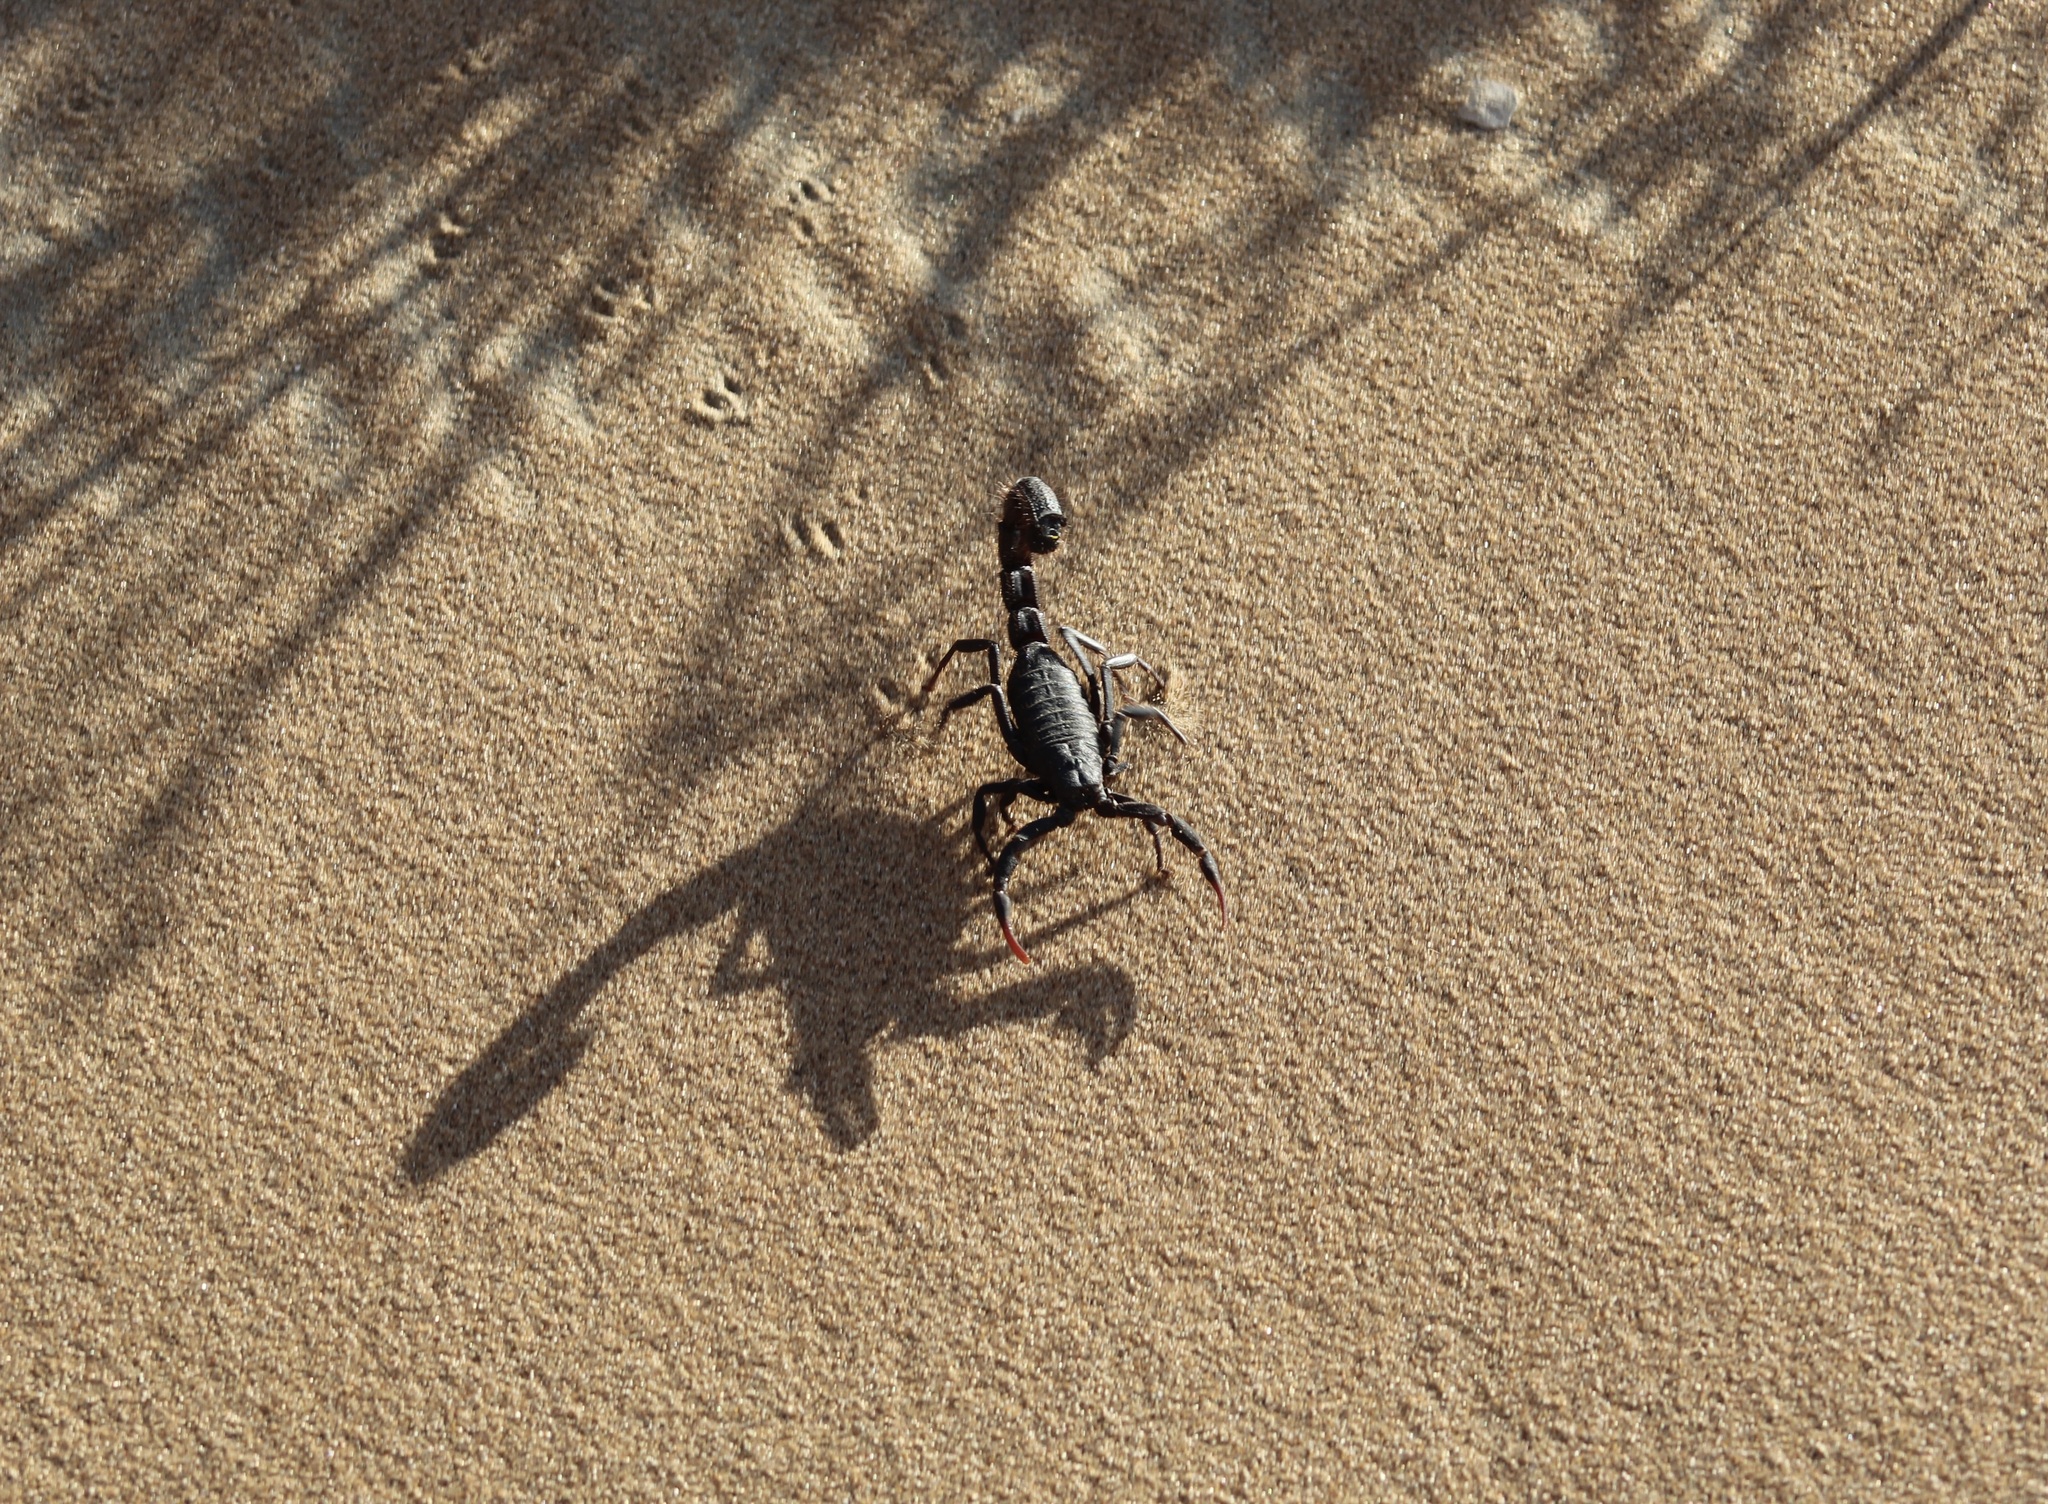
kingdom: Animalia
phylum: Arthropoda
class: Arachnida
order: Scorpiones
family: Buthidae
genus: Parabuthus
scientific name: Parabuthus villosus
